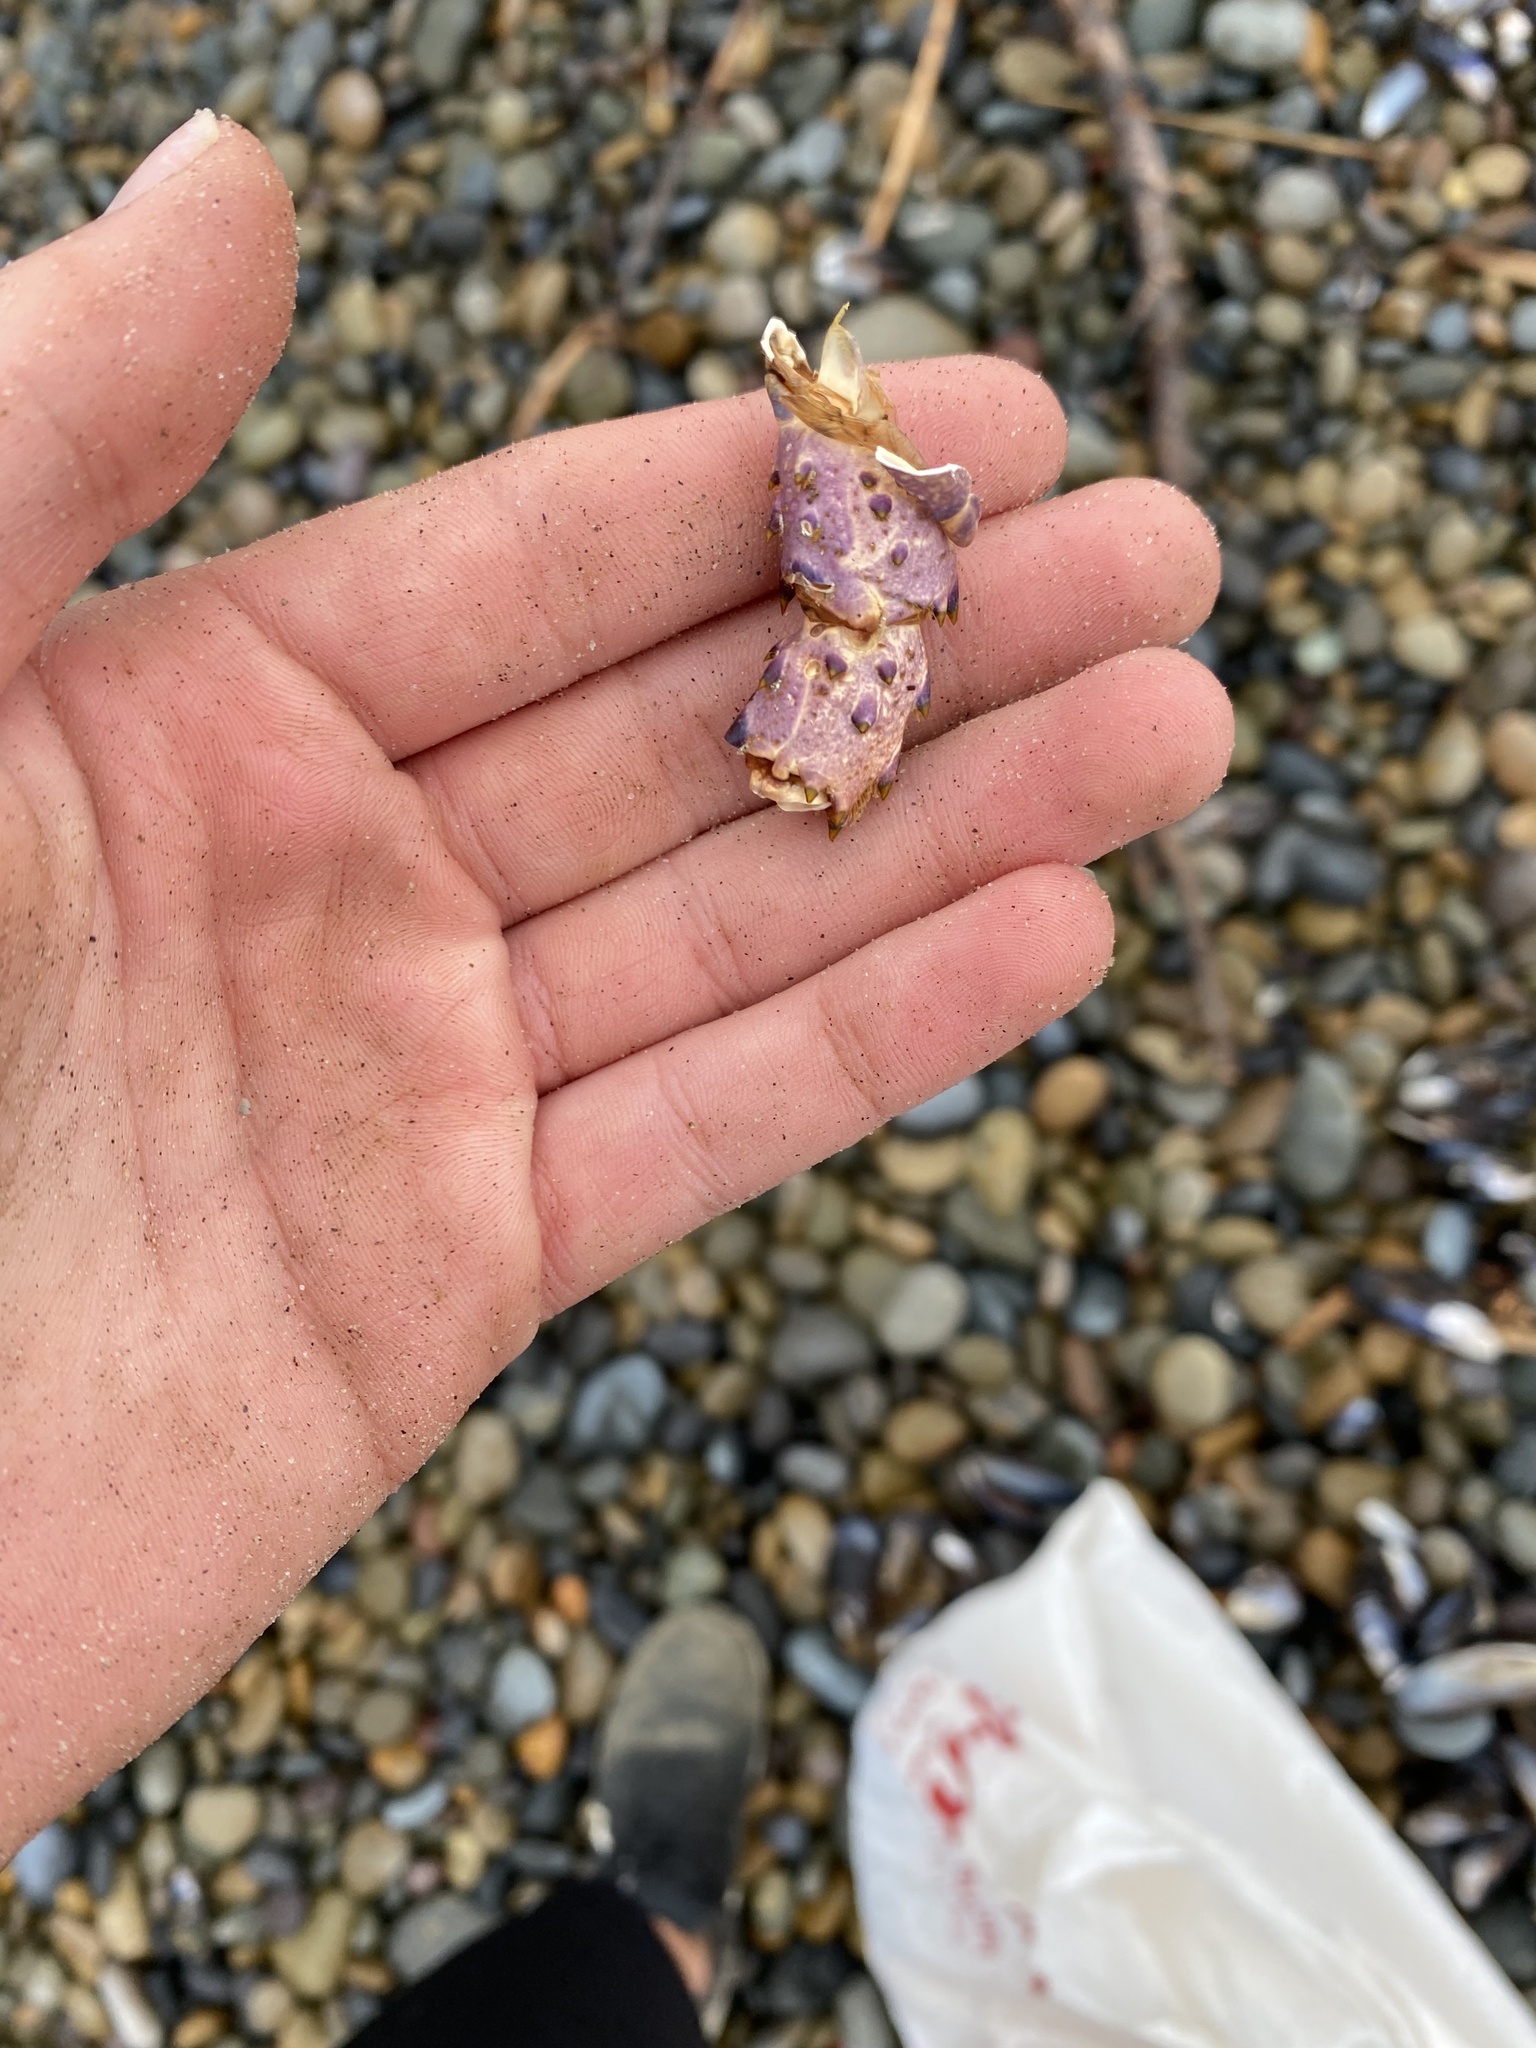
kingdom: Animalia
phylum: Arthropoda
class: Malacostraca
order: Decapoda
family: Palinuridae
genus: Panulirus
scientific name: Panulirus interruptus
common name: California spiny lobster
